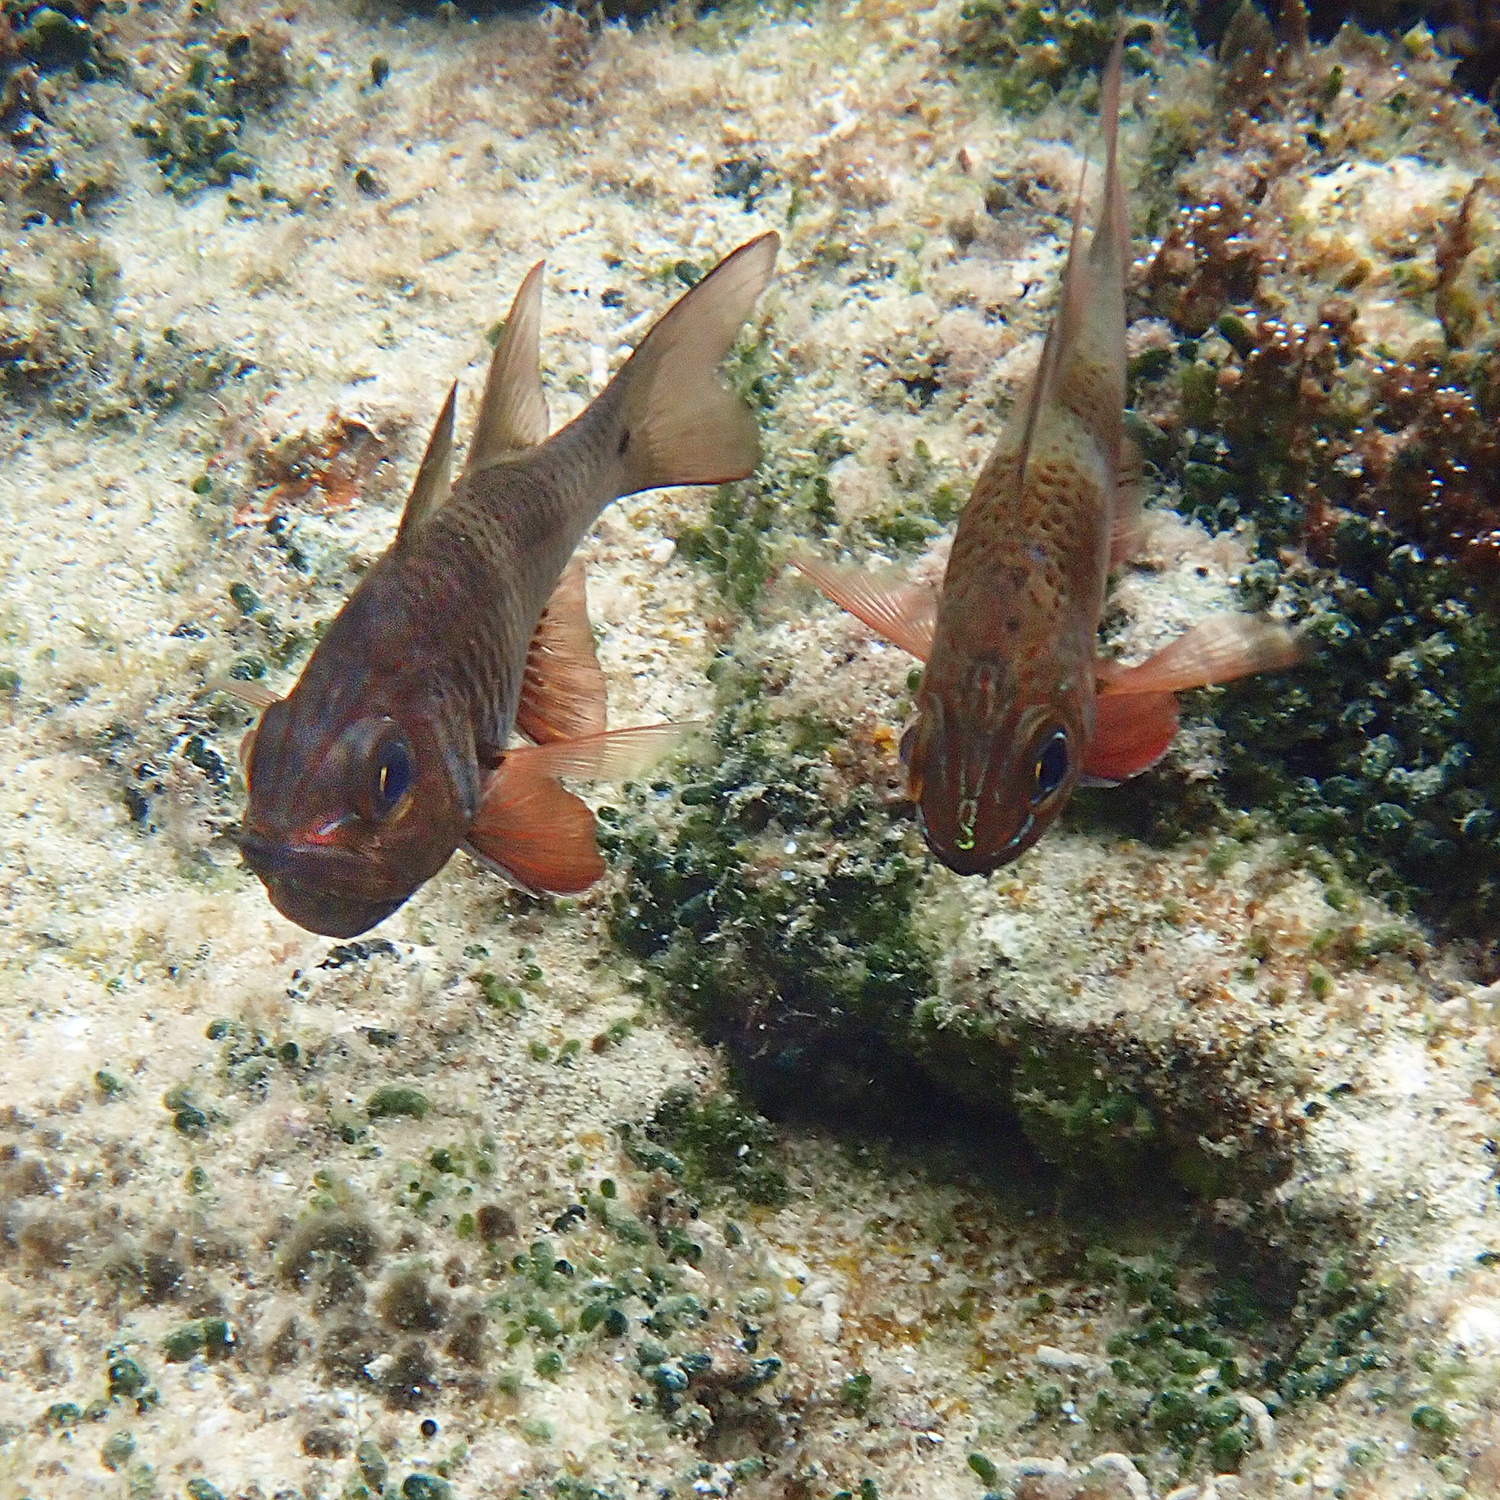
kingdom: Animalia
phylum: Chordata
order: Perciformes
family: Apogonidae
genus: Ostorhinchus
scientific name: Ostorhinchus norfolcensis
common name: Norfolk cardinalfish
